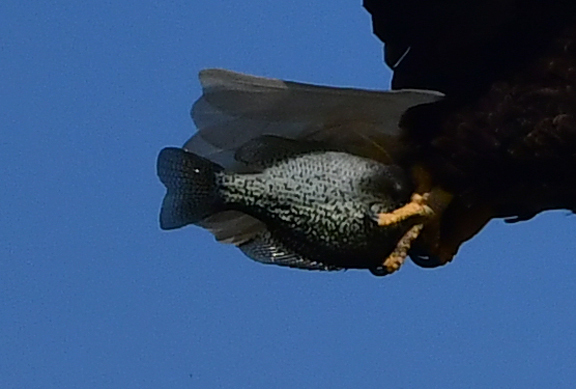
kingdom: Animalia
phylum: Chordata
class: Aves
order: Accipitriformes
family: Accipitridae
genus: Haliaeetus
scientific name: Haliaeetus leucocephalus
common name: Bald eagle
